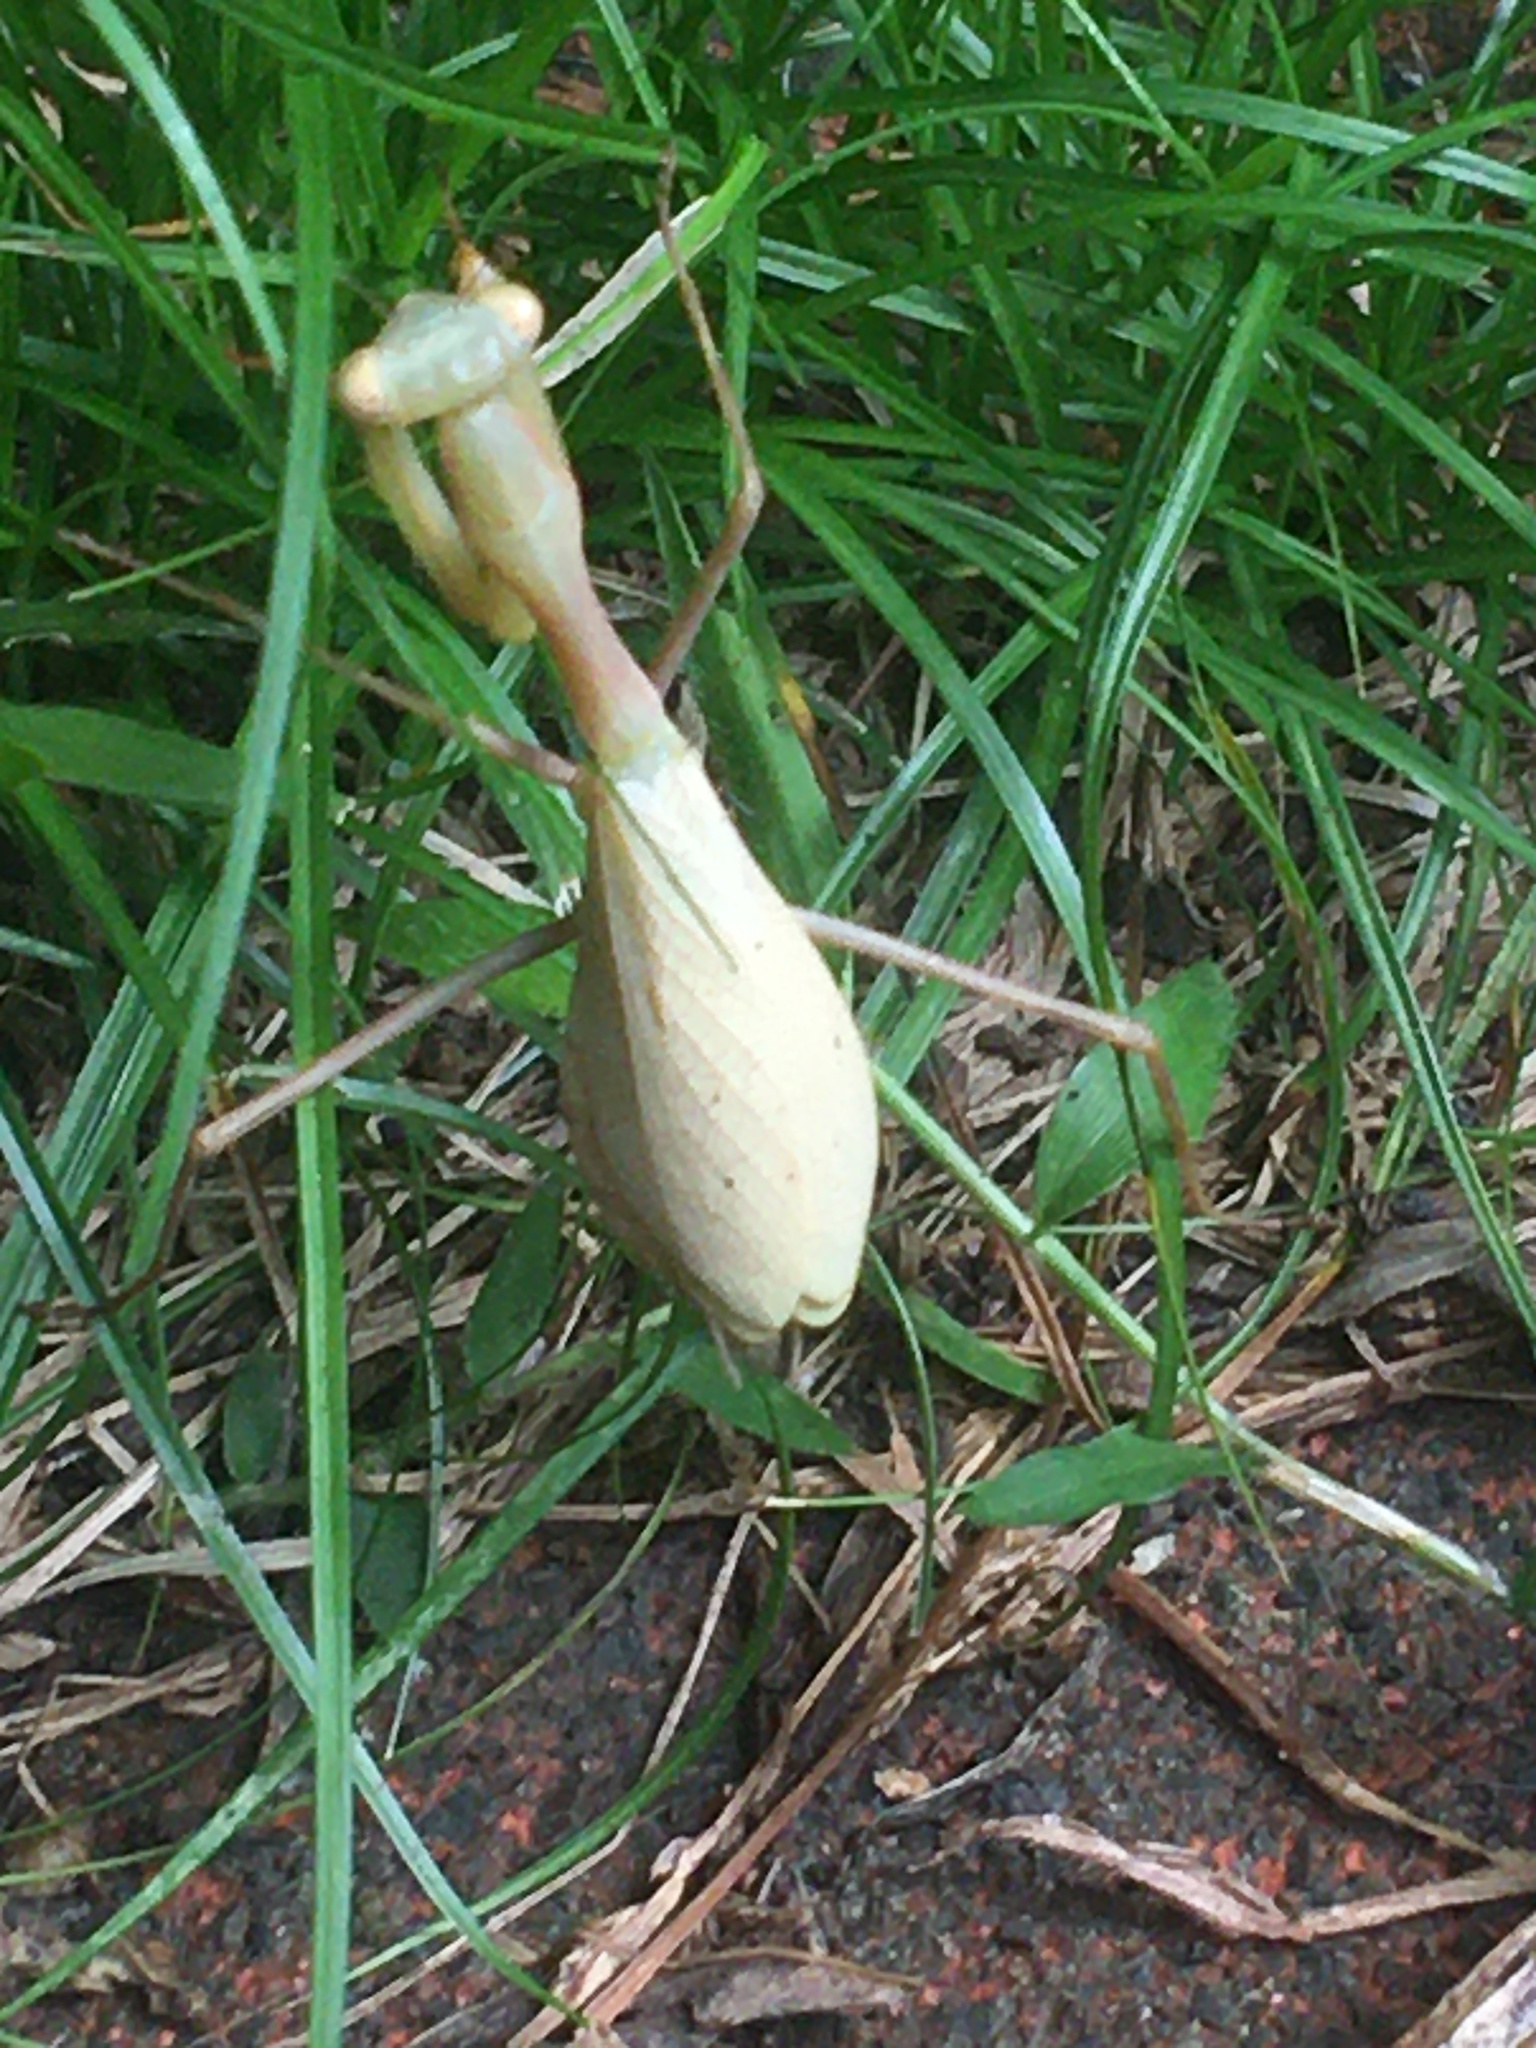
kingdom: Animalia
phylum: Arthropoda
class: Insecta
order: Mantodea
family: Miomantidae
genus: Miomantis
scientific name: Miomantis caffra
